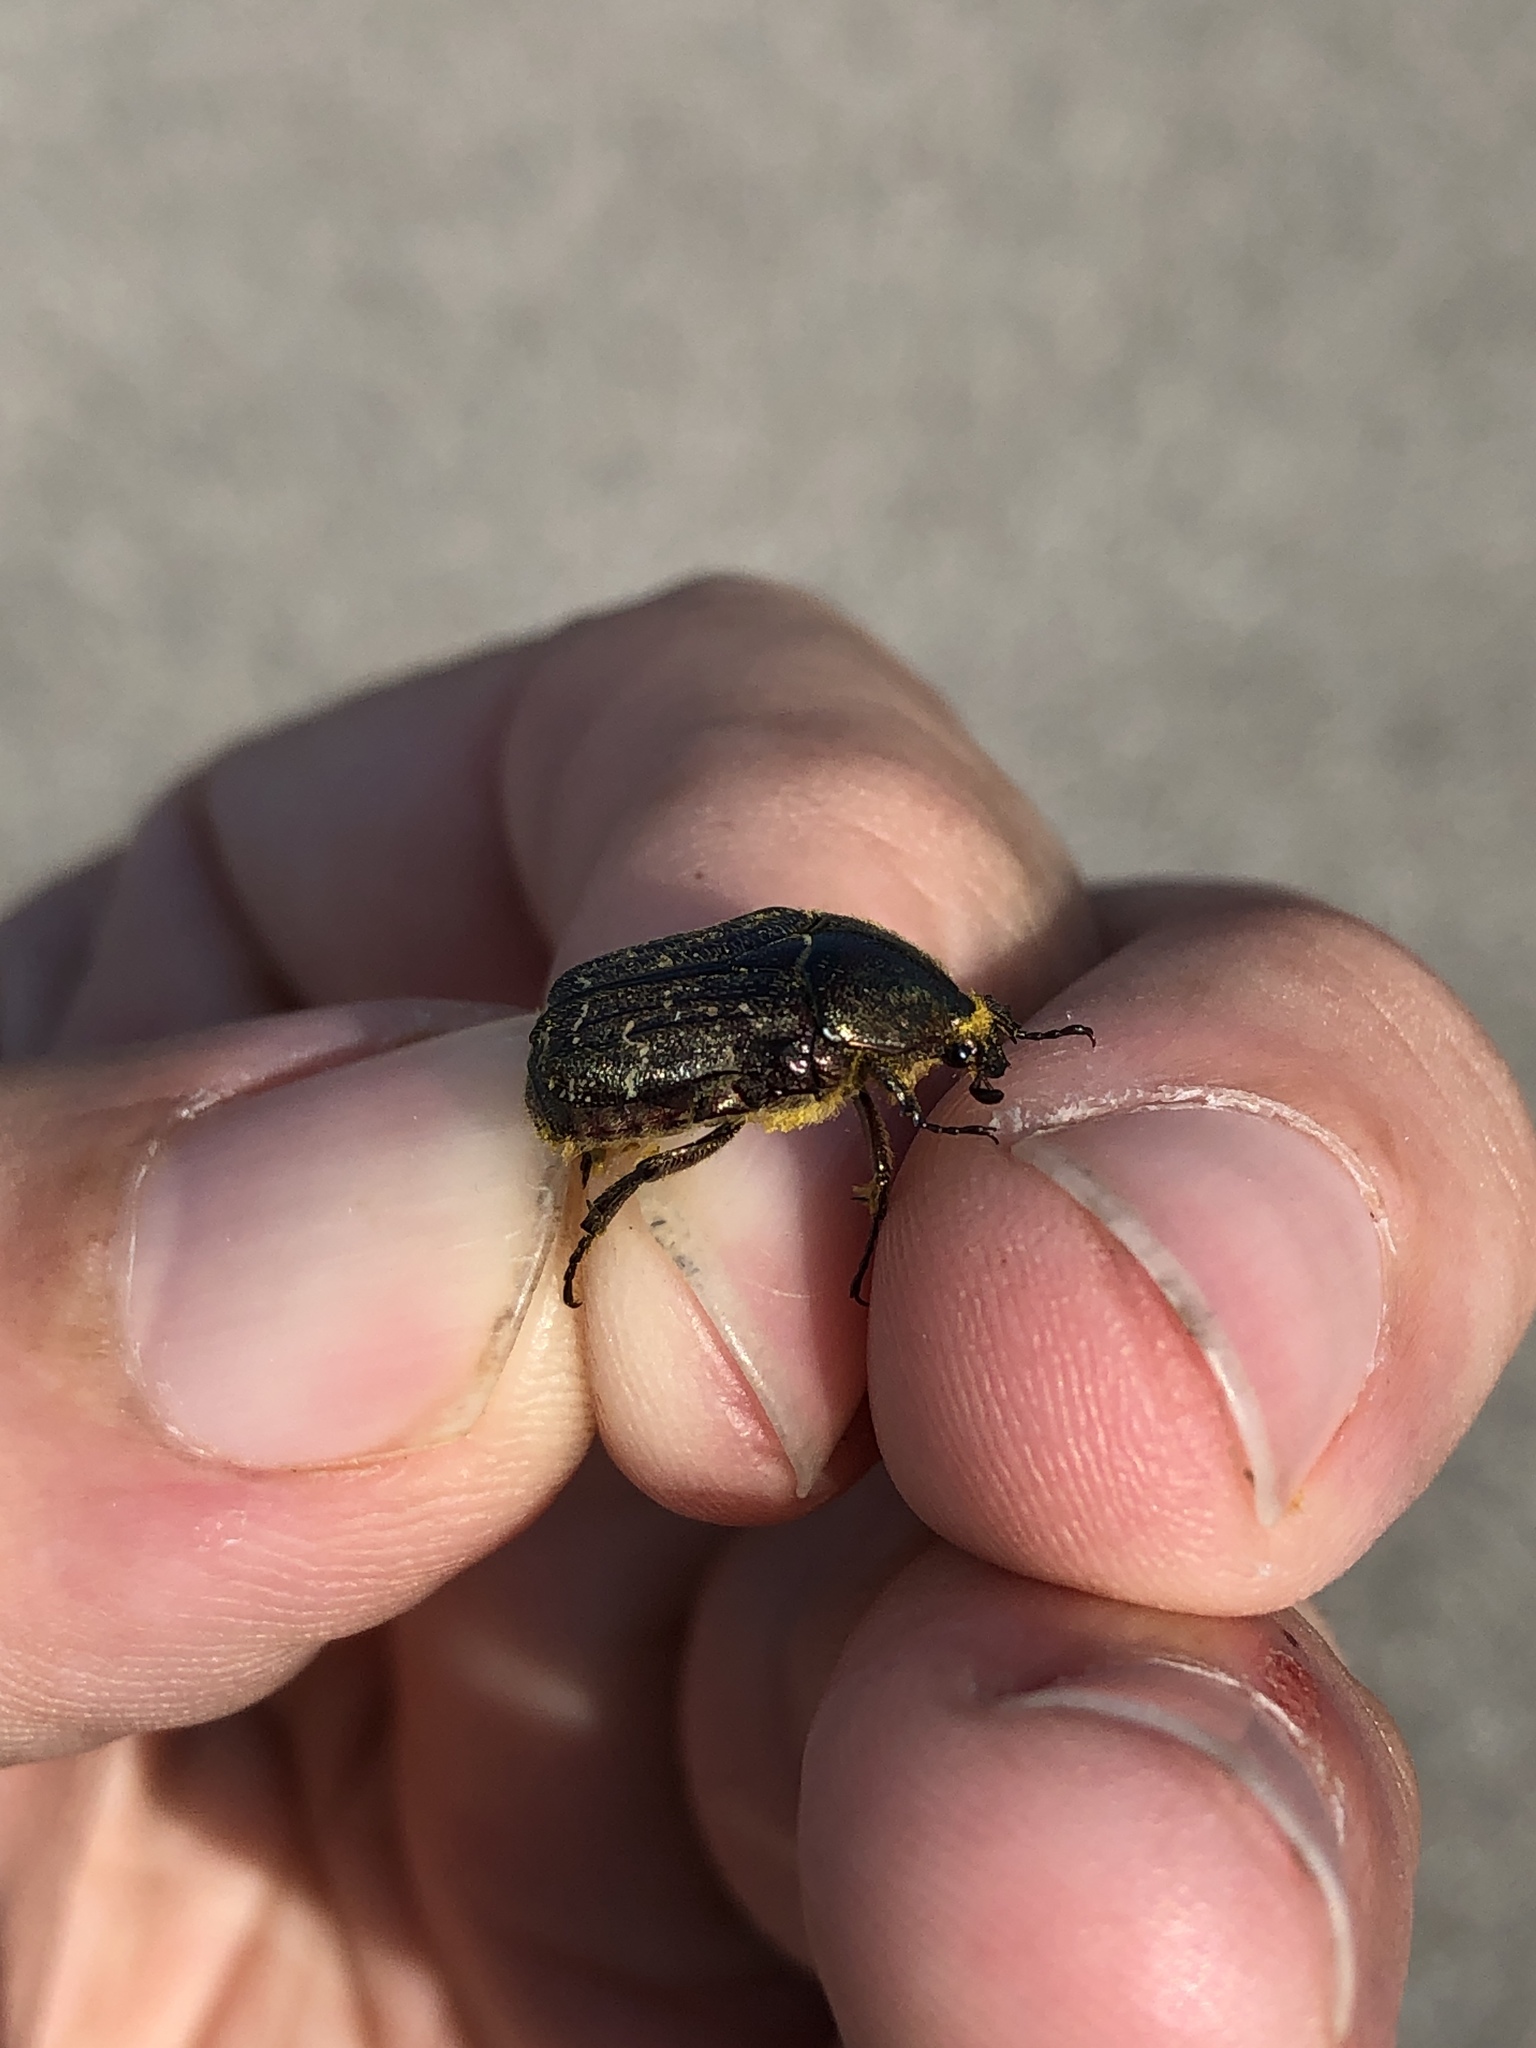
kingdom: Animalia
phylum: Arthropoda
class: Insecta
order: Coleoptera
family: Scarabaeidae
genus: Euphoria
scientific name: Euphoria sepulcralis
